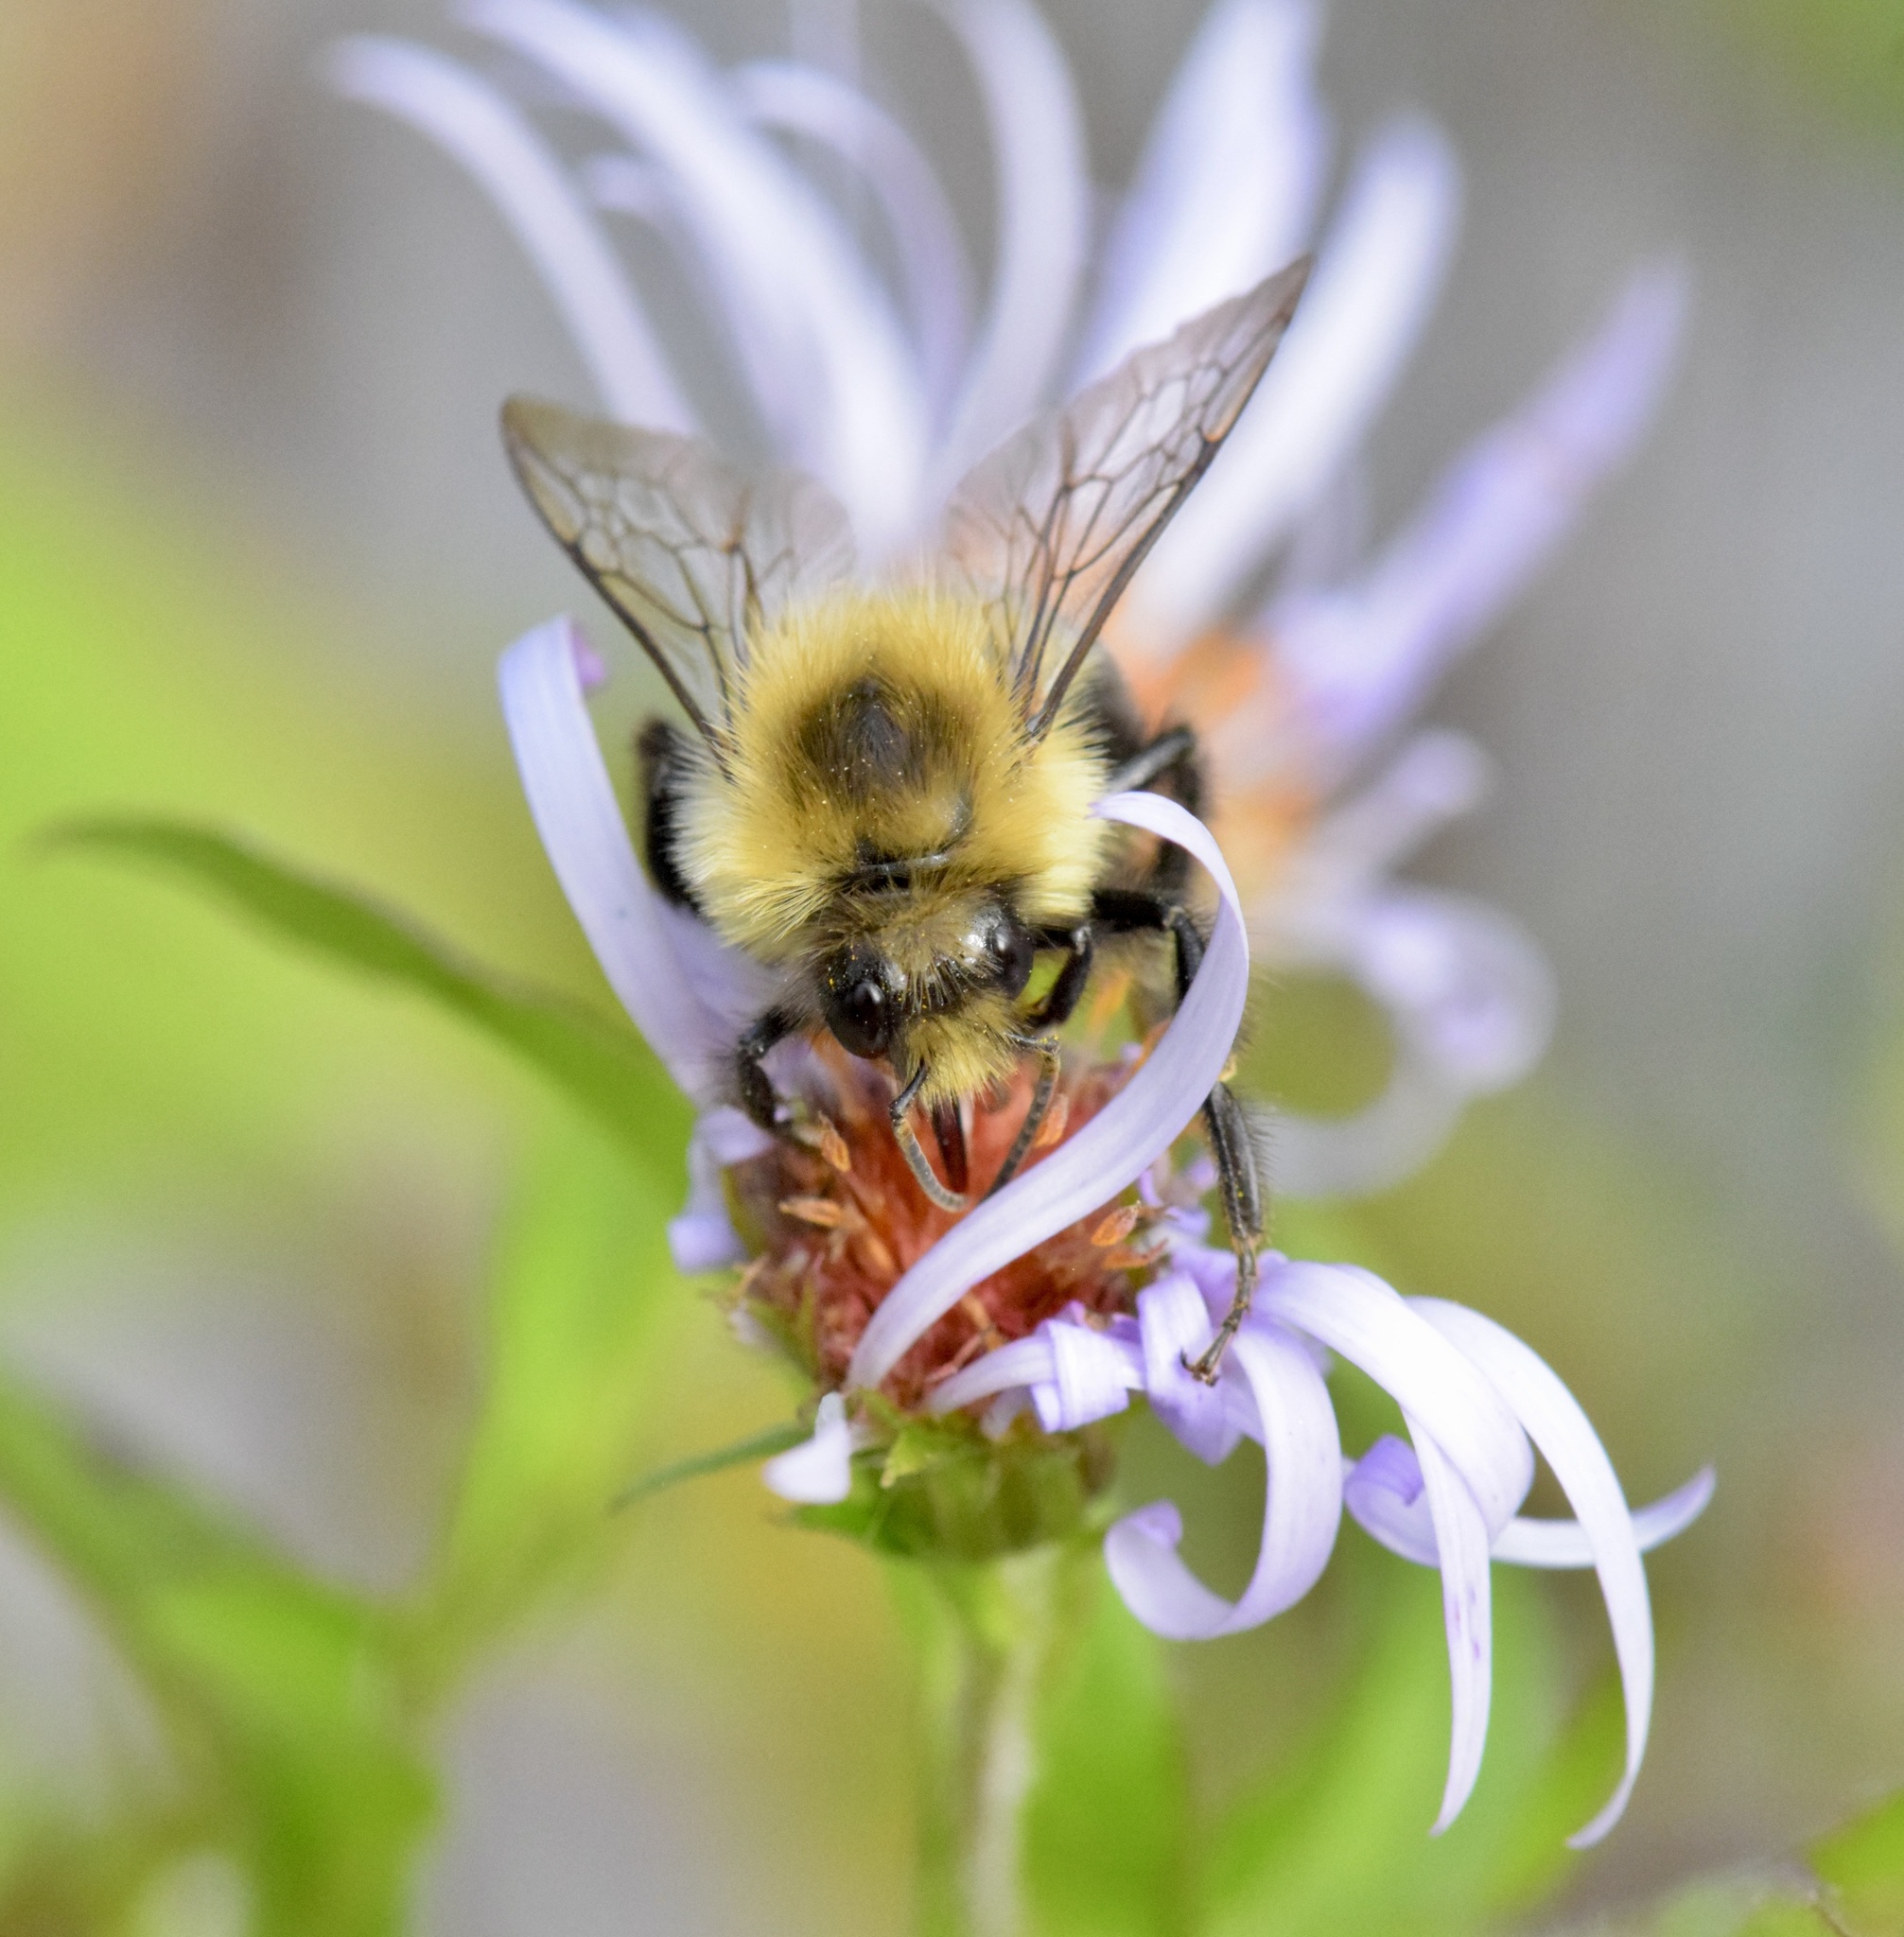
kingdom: Animalia
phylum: Arthropoda
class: Insecta
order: Hymenoptera
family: Apidae
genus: Bombus
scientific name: Bombus impatiens
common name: Common eastern bumble bee
